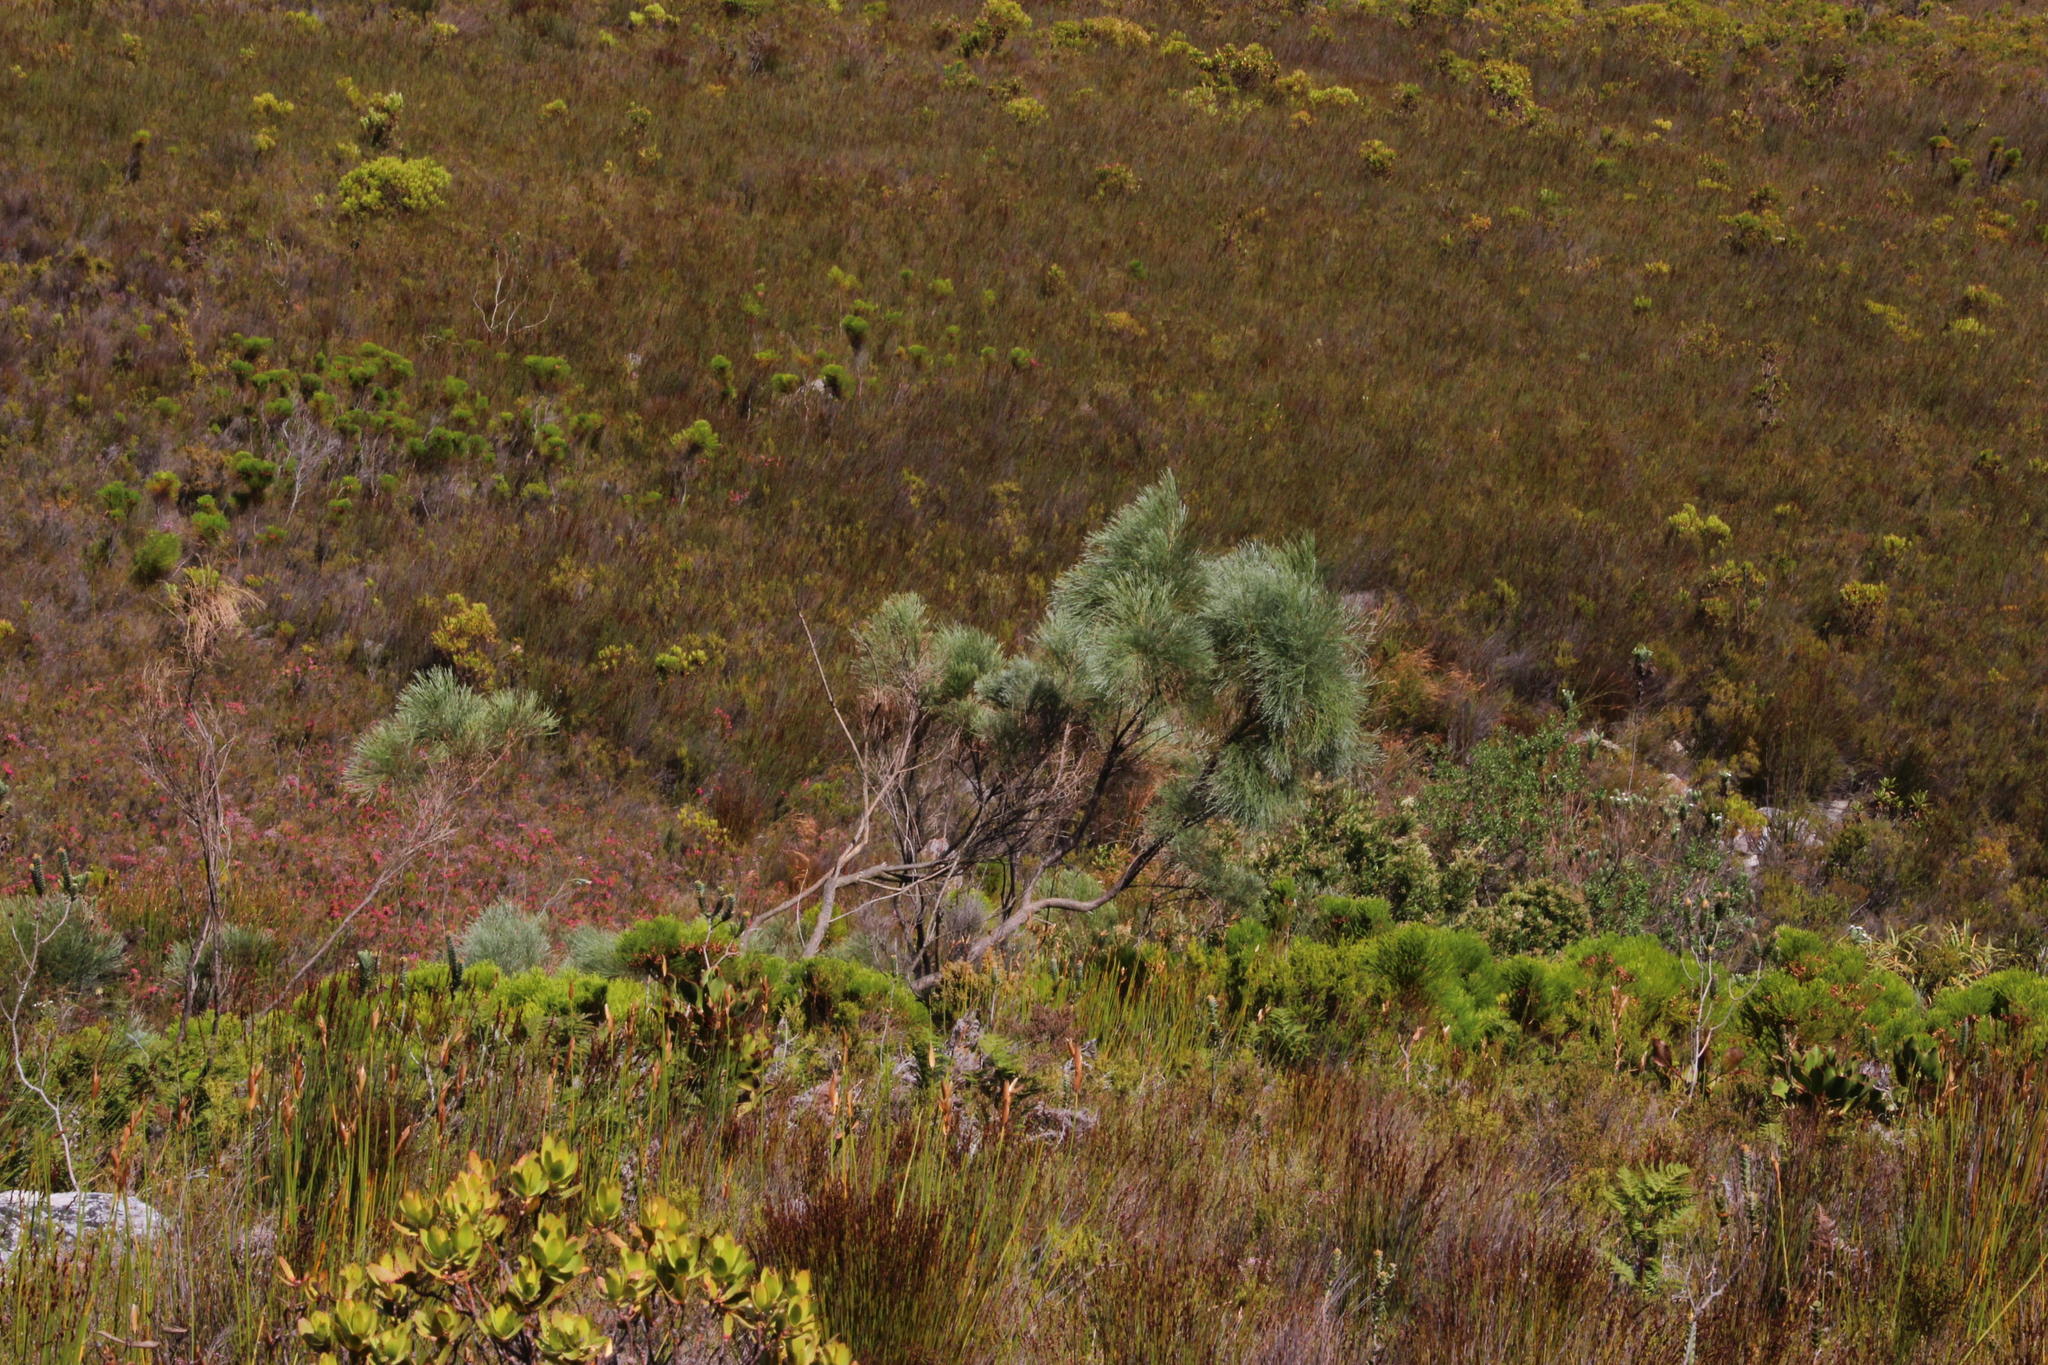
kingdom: Plantae
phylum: Tracheophyta
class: Magnoliopsida
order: Fabales
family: Fabaceae
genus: Psoralea
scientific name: Psoralea pullata
